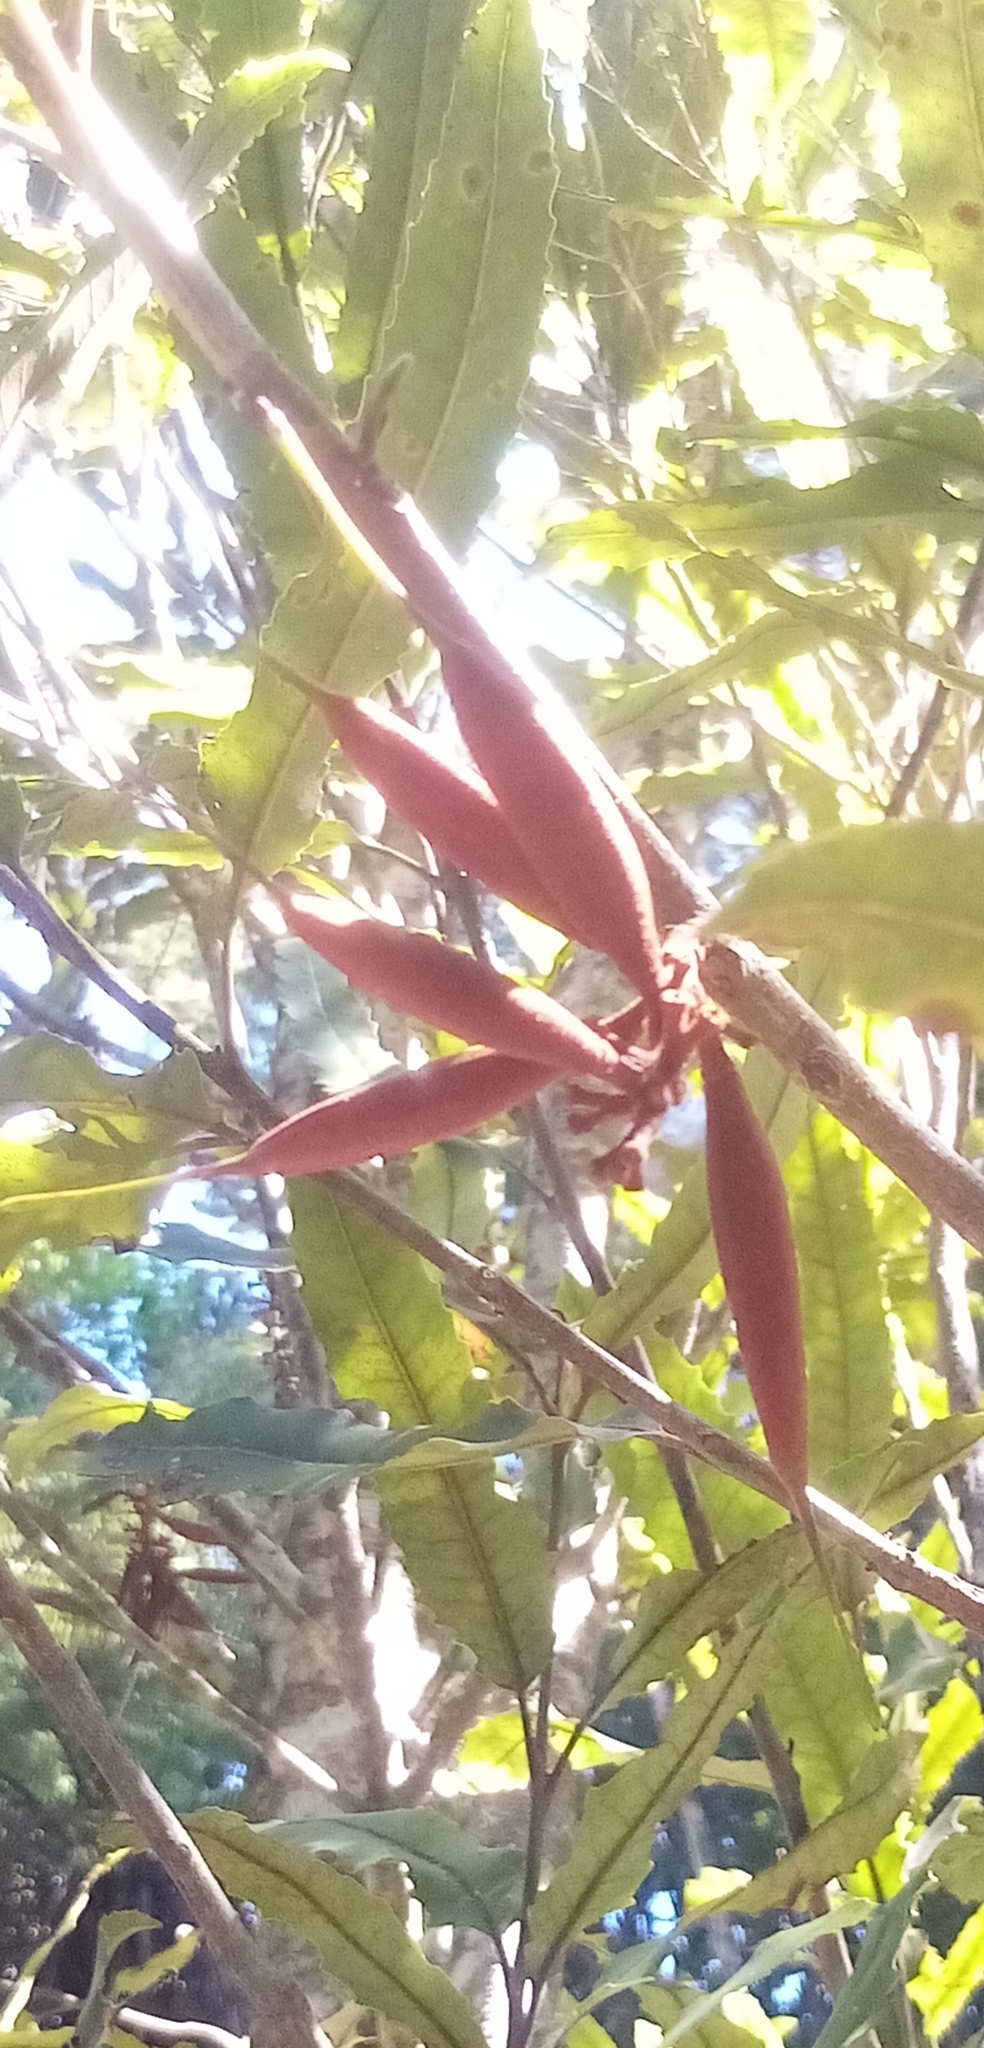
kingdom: Plantae
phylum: Tracheophyta
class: Magnoliopsida
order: Proteales
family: Proteaceae
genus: Knightia
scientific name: Knightia excelsa
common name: New zealand-honeysuckle
